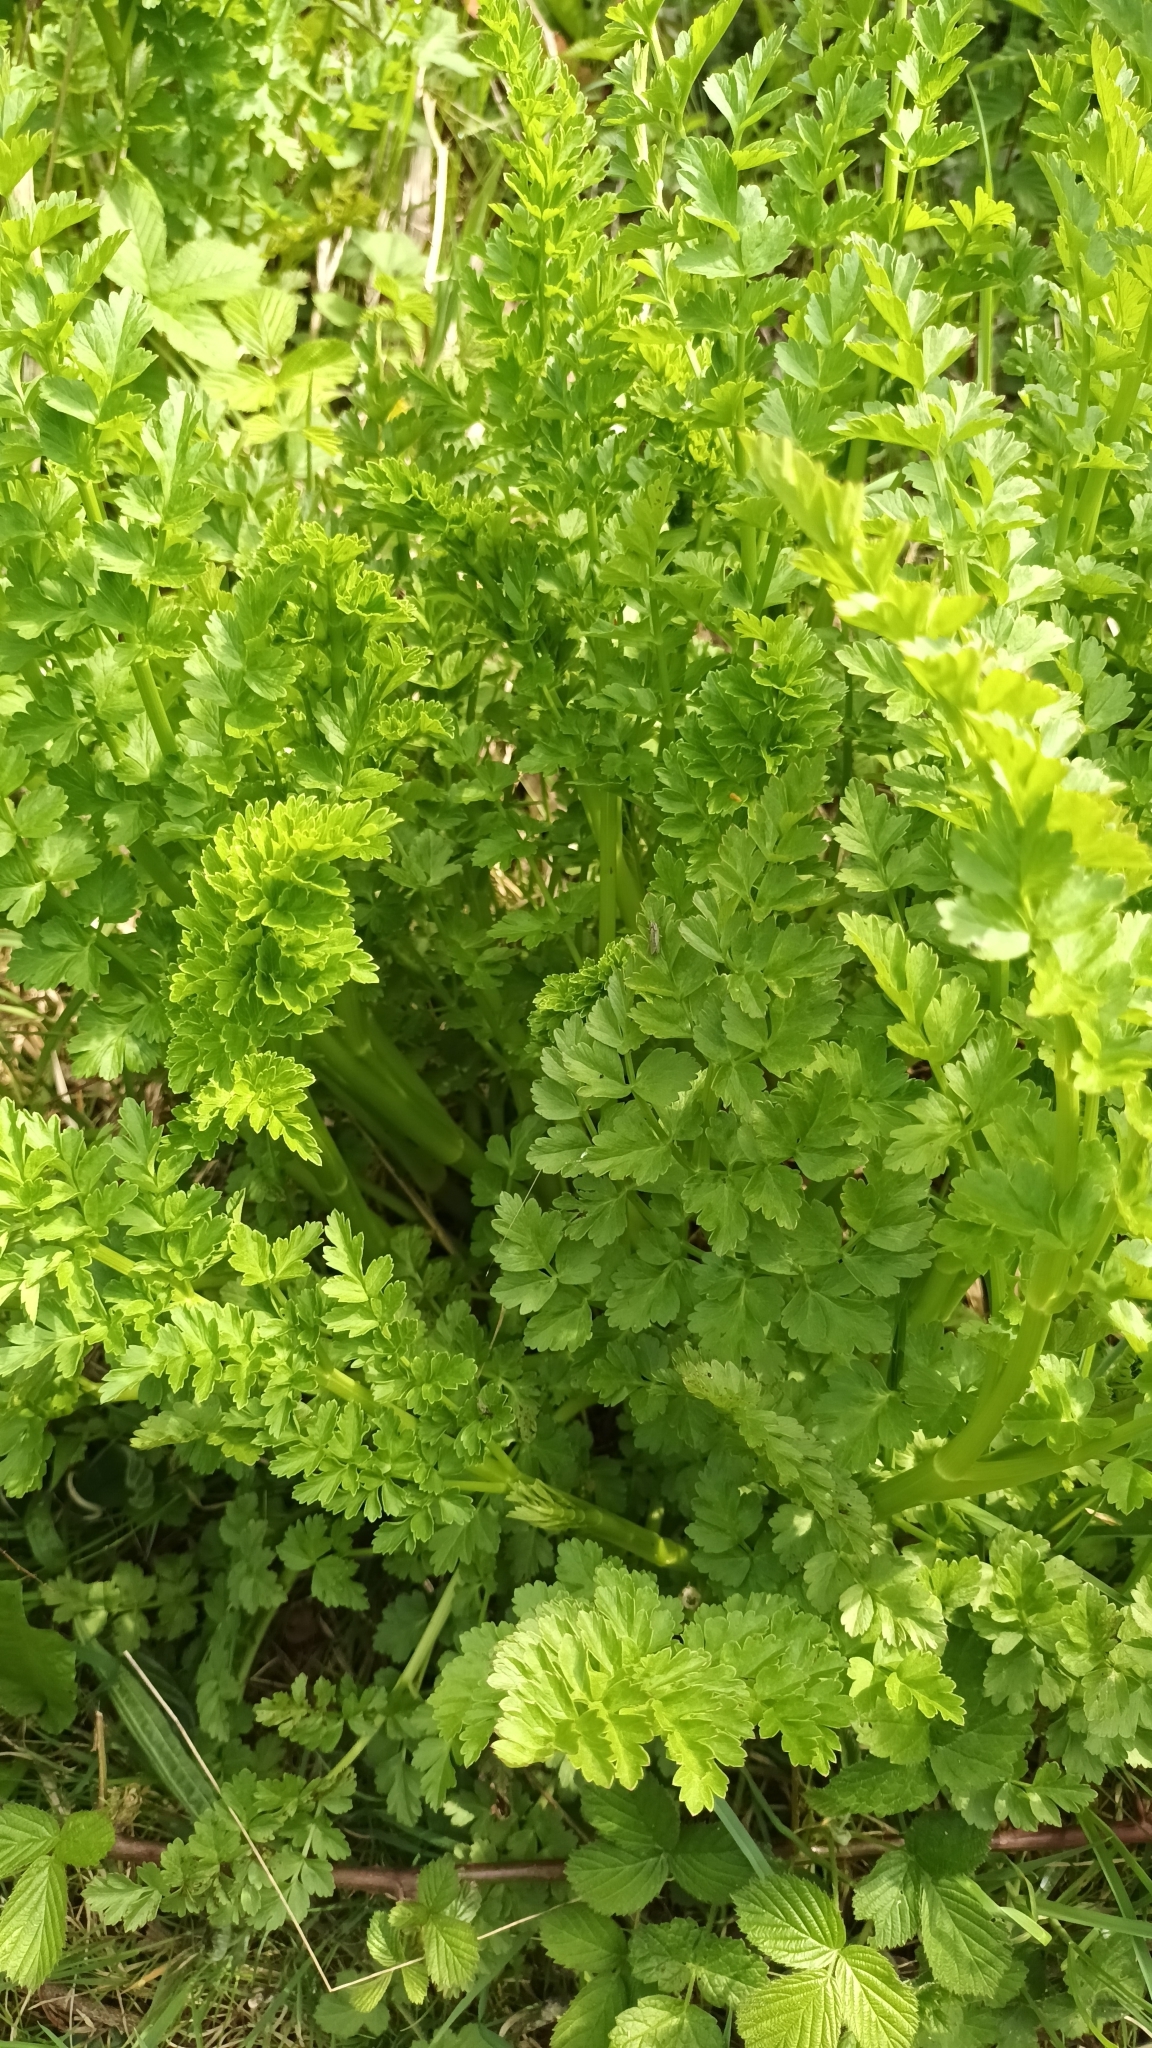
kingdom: Plantae
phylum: Tracheophyta
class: Magnoliopsida
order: Apiales
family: Apiaceae
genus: Oenanthe
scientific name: Oenanthe crocata
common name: Hemlock water-dropwort
